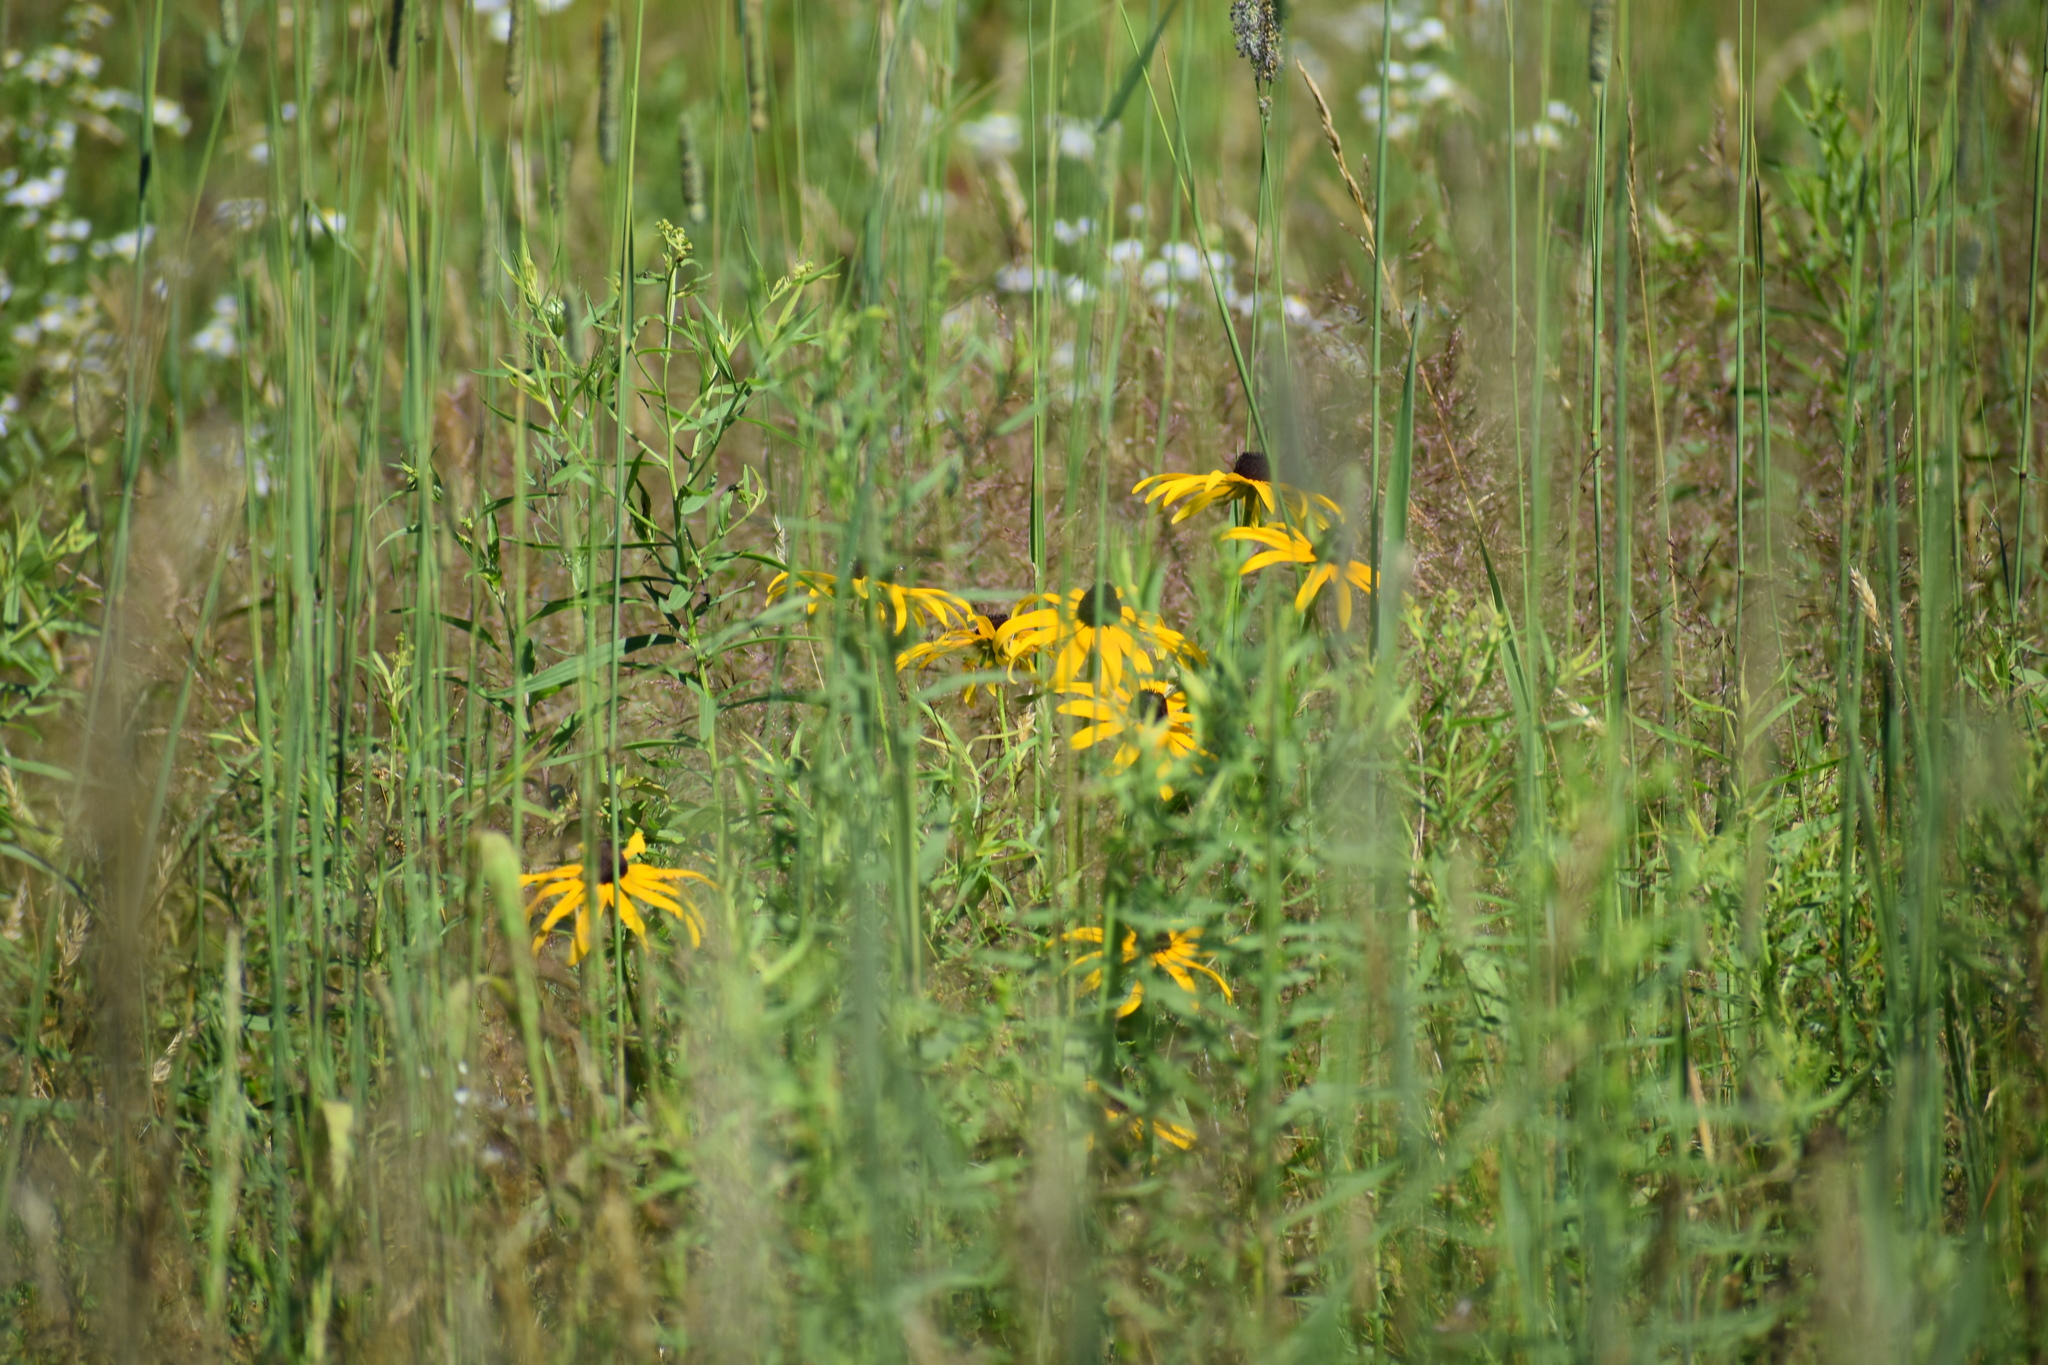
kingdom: Plantae
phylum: Tracheophyta
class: Magnoliopsida
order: Asterales
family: Asteraceae
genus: Rudbeckia
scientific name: Rudbeckia hirta
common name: Black-eyed-susan
